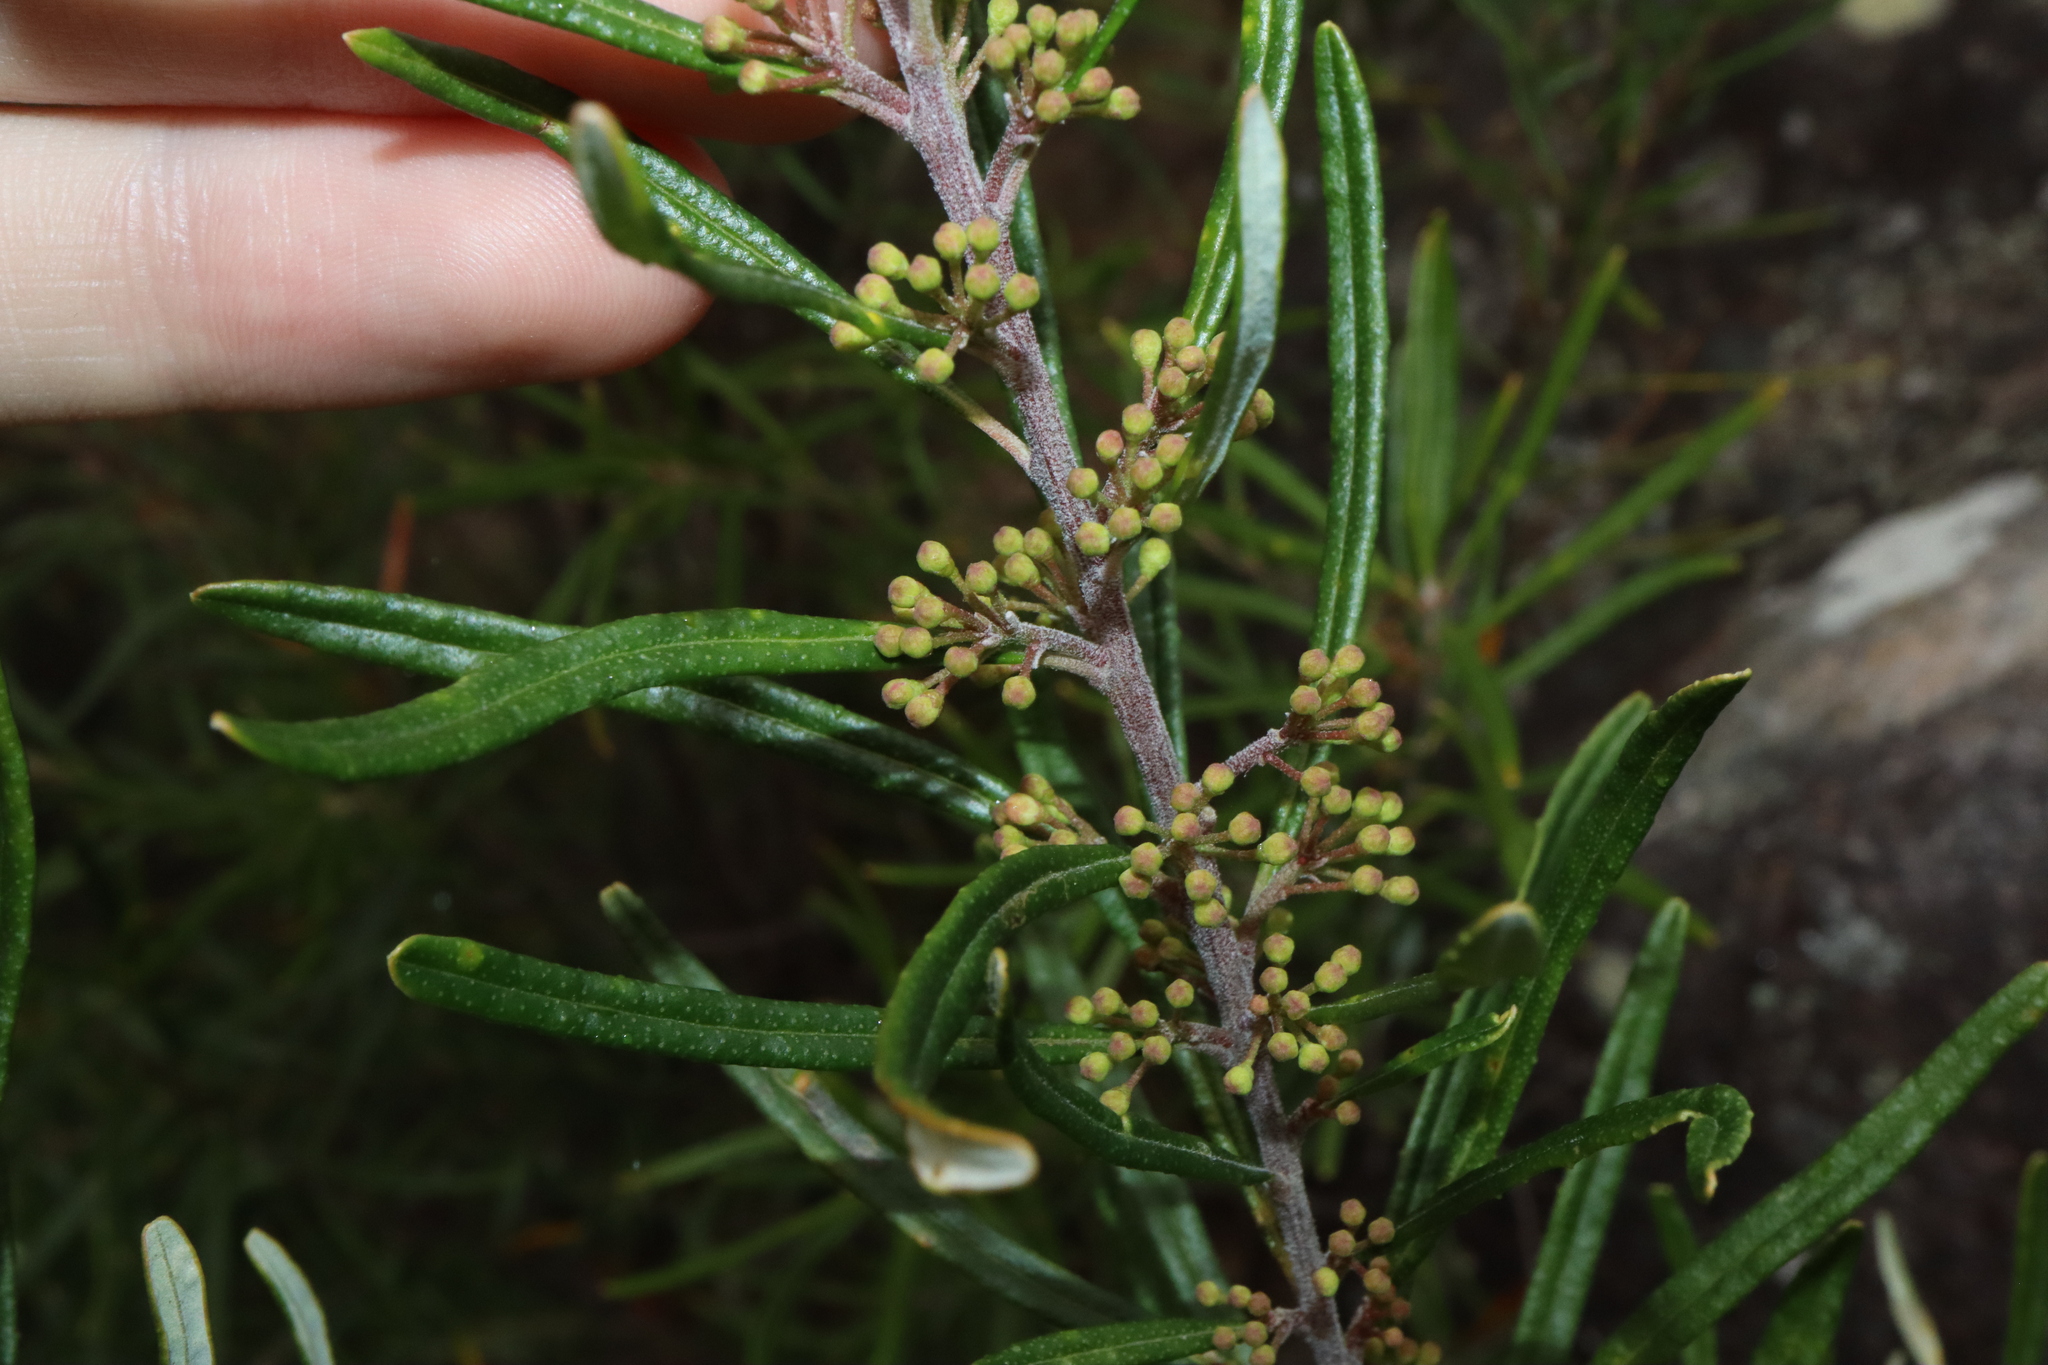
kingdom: Plantae
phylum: Tracheophyta
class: Magnoliopsida
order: Sapindales
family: Rutaceae
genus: Leionema
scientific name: Leionema dentatum
